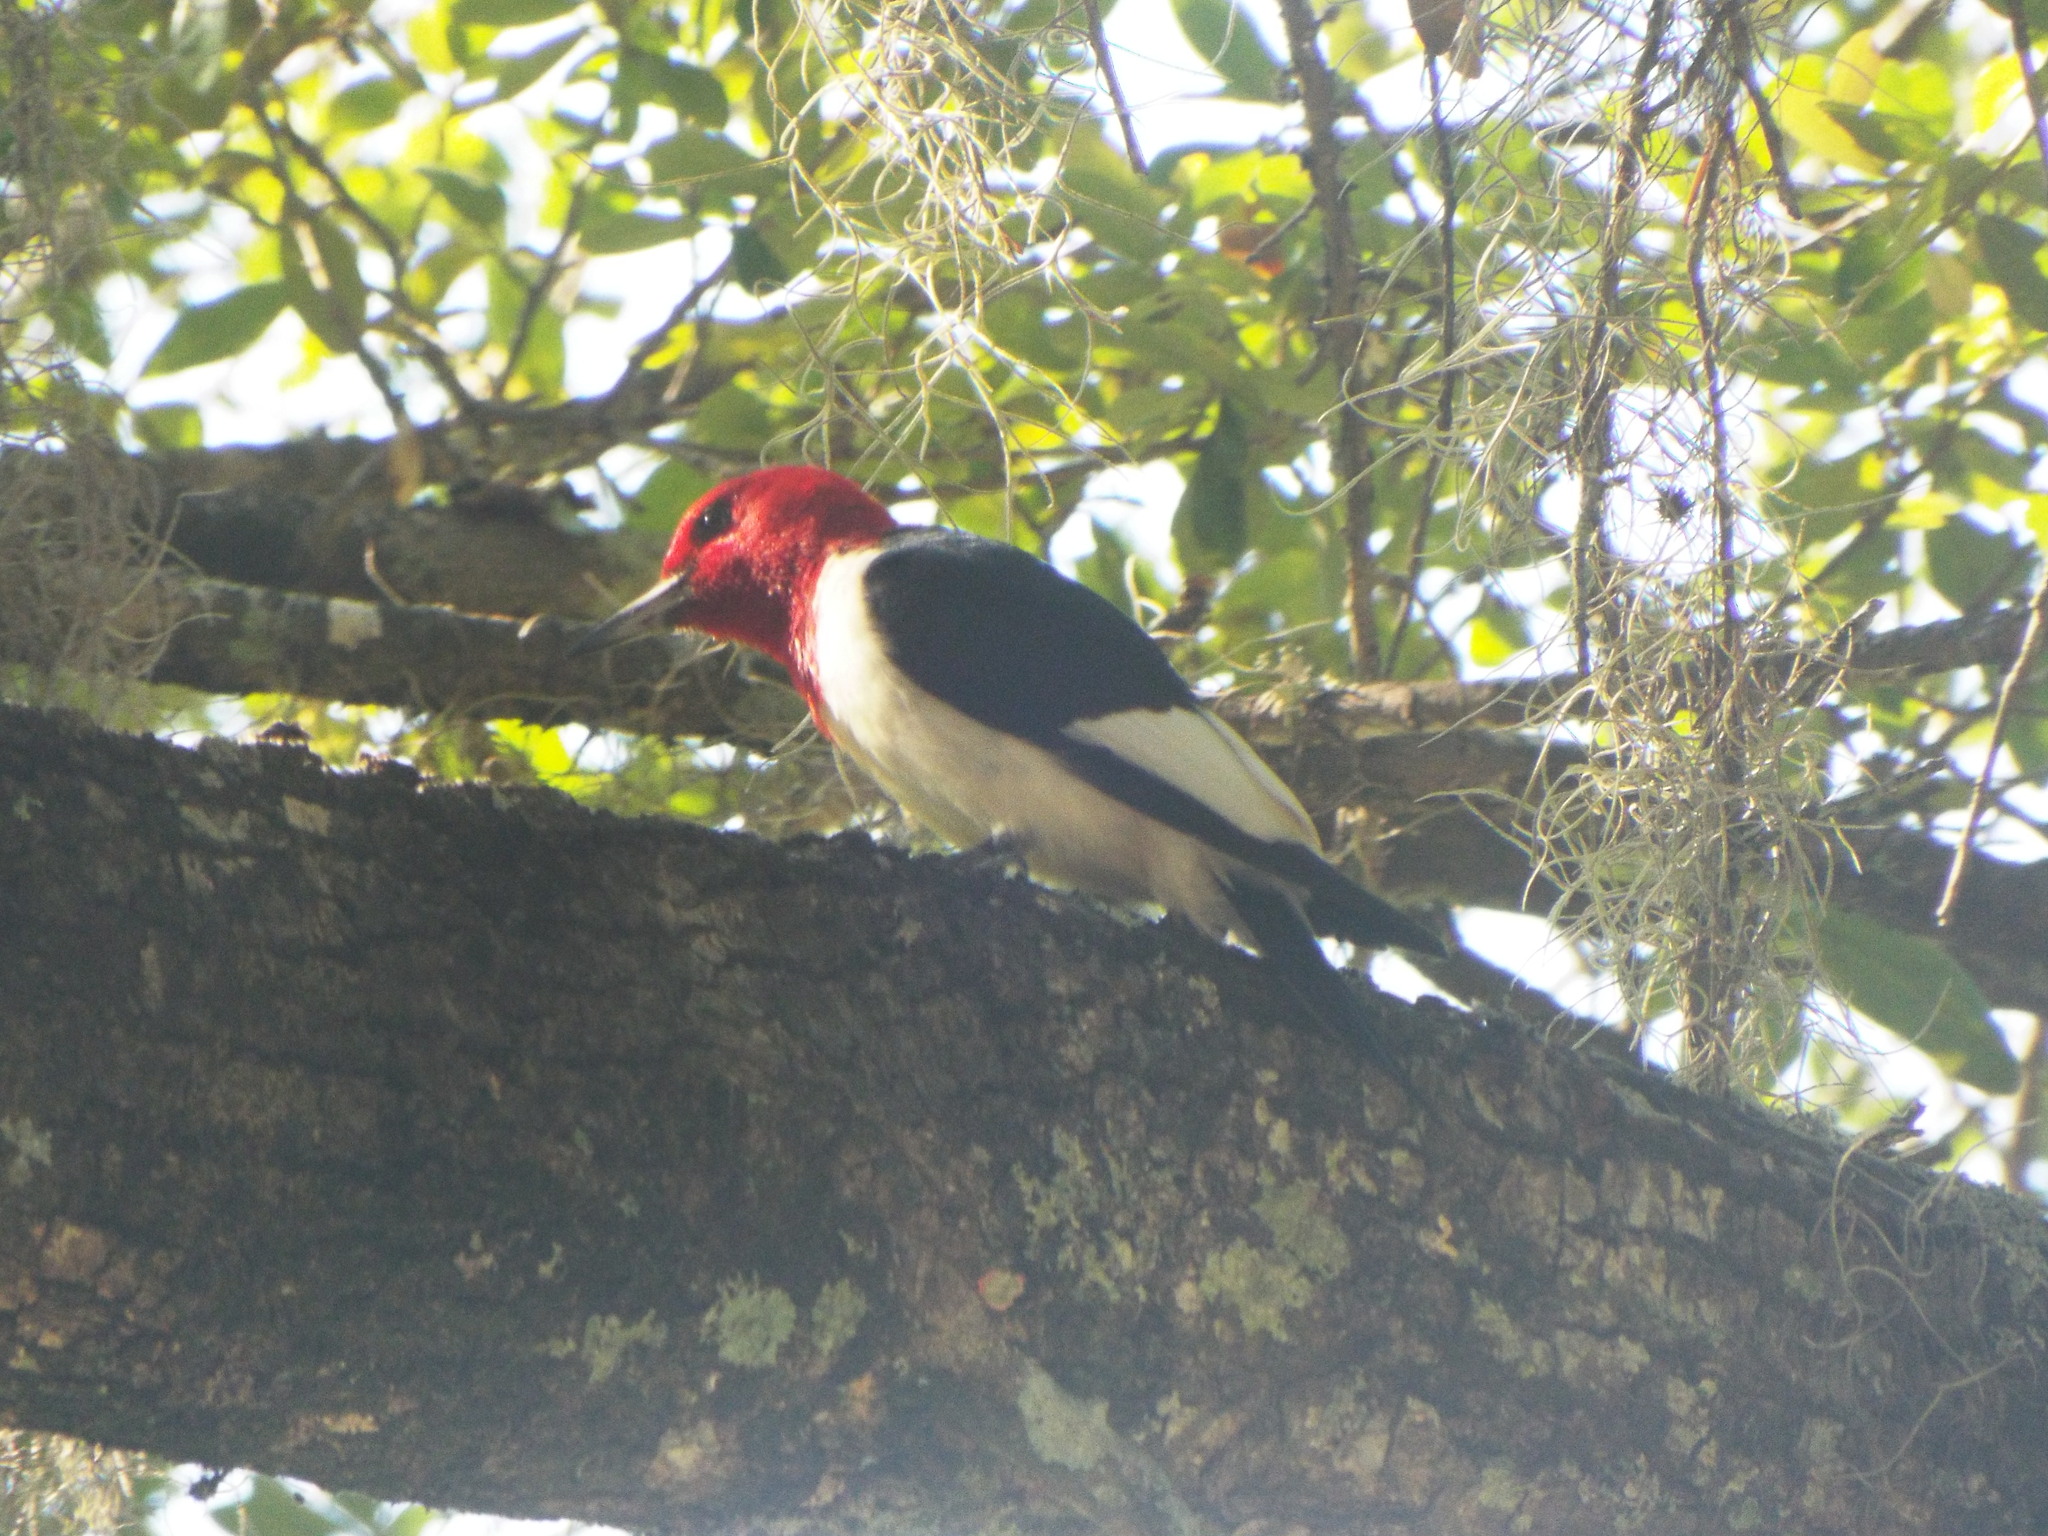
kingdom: Animalia
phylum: Chordata
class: Aves
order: Piciformes
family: Picidae
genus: Melanerpes
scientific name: Melanerpes erythrocephalus
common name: Red-headed woodpecker
